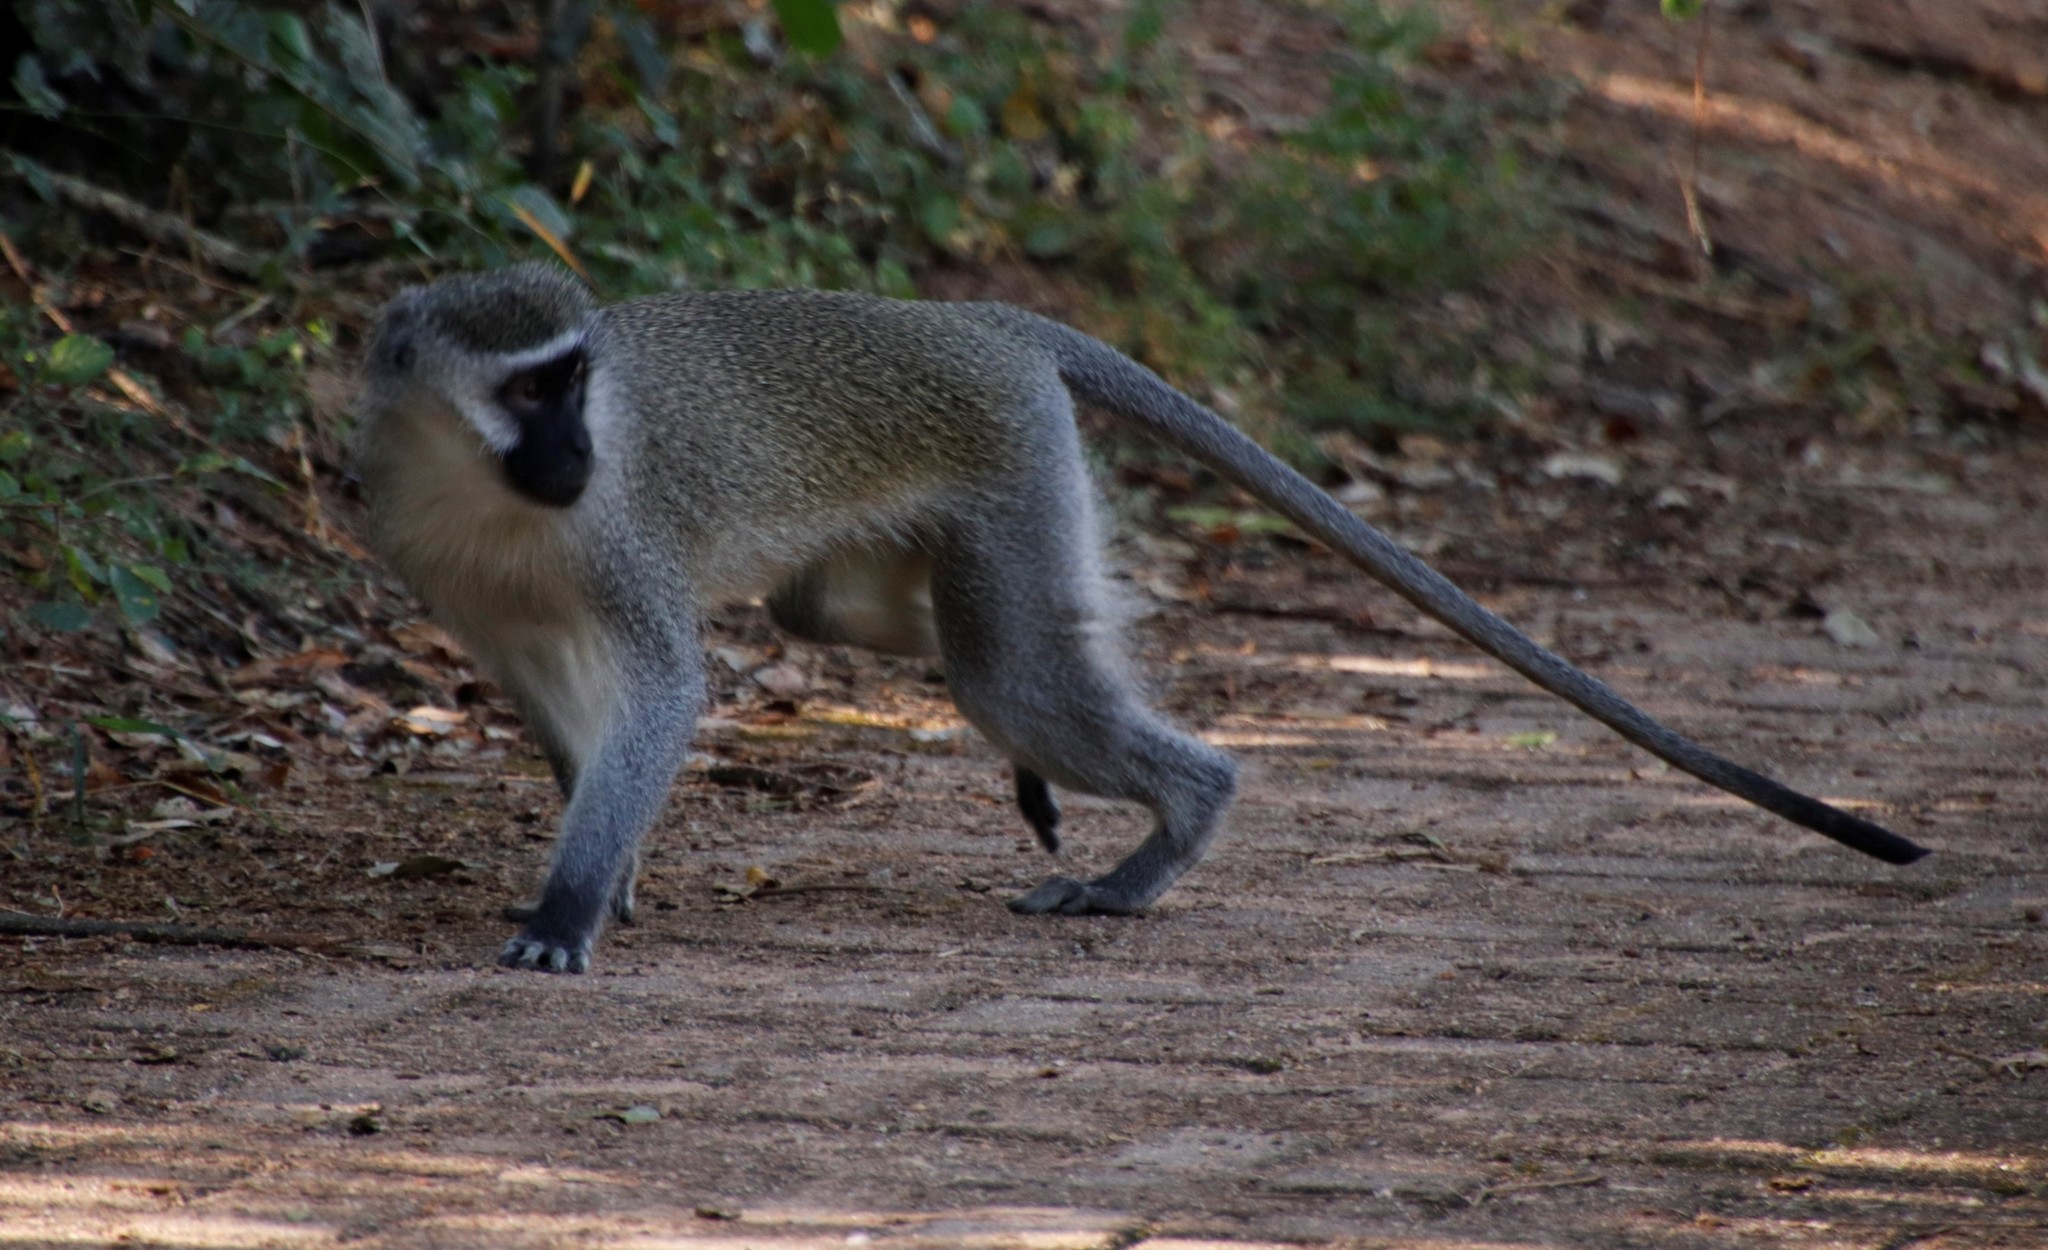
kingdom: Animalia
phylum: Chordata
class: Mammalia
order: Primates
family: Cercopithecidae
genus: Chlorocebus
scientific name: Chlorocebus pygerythrus
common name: Vervet monkey
